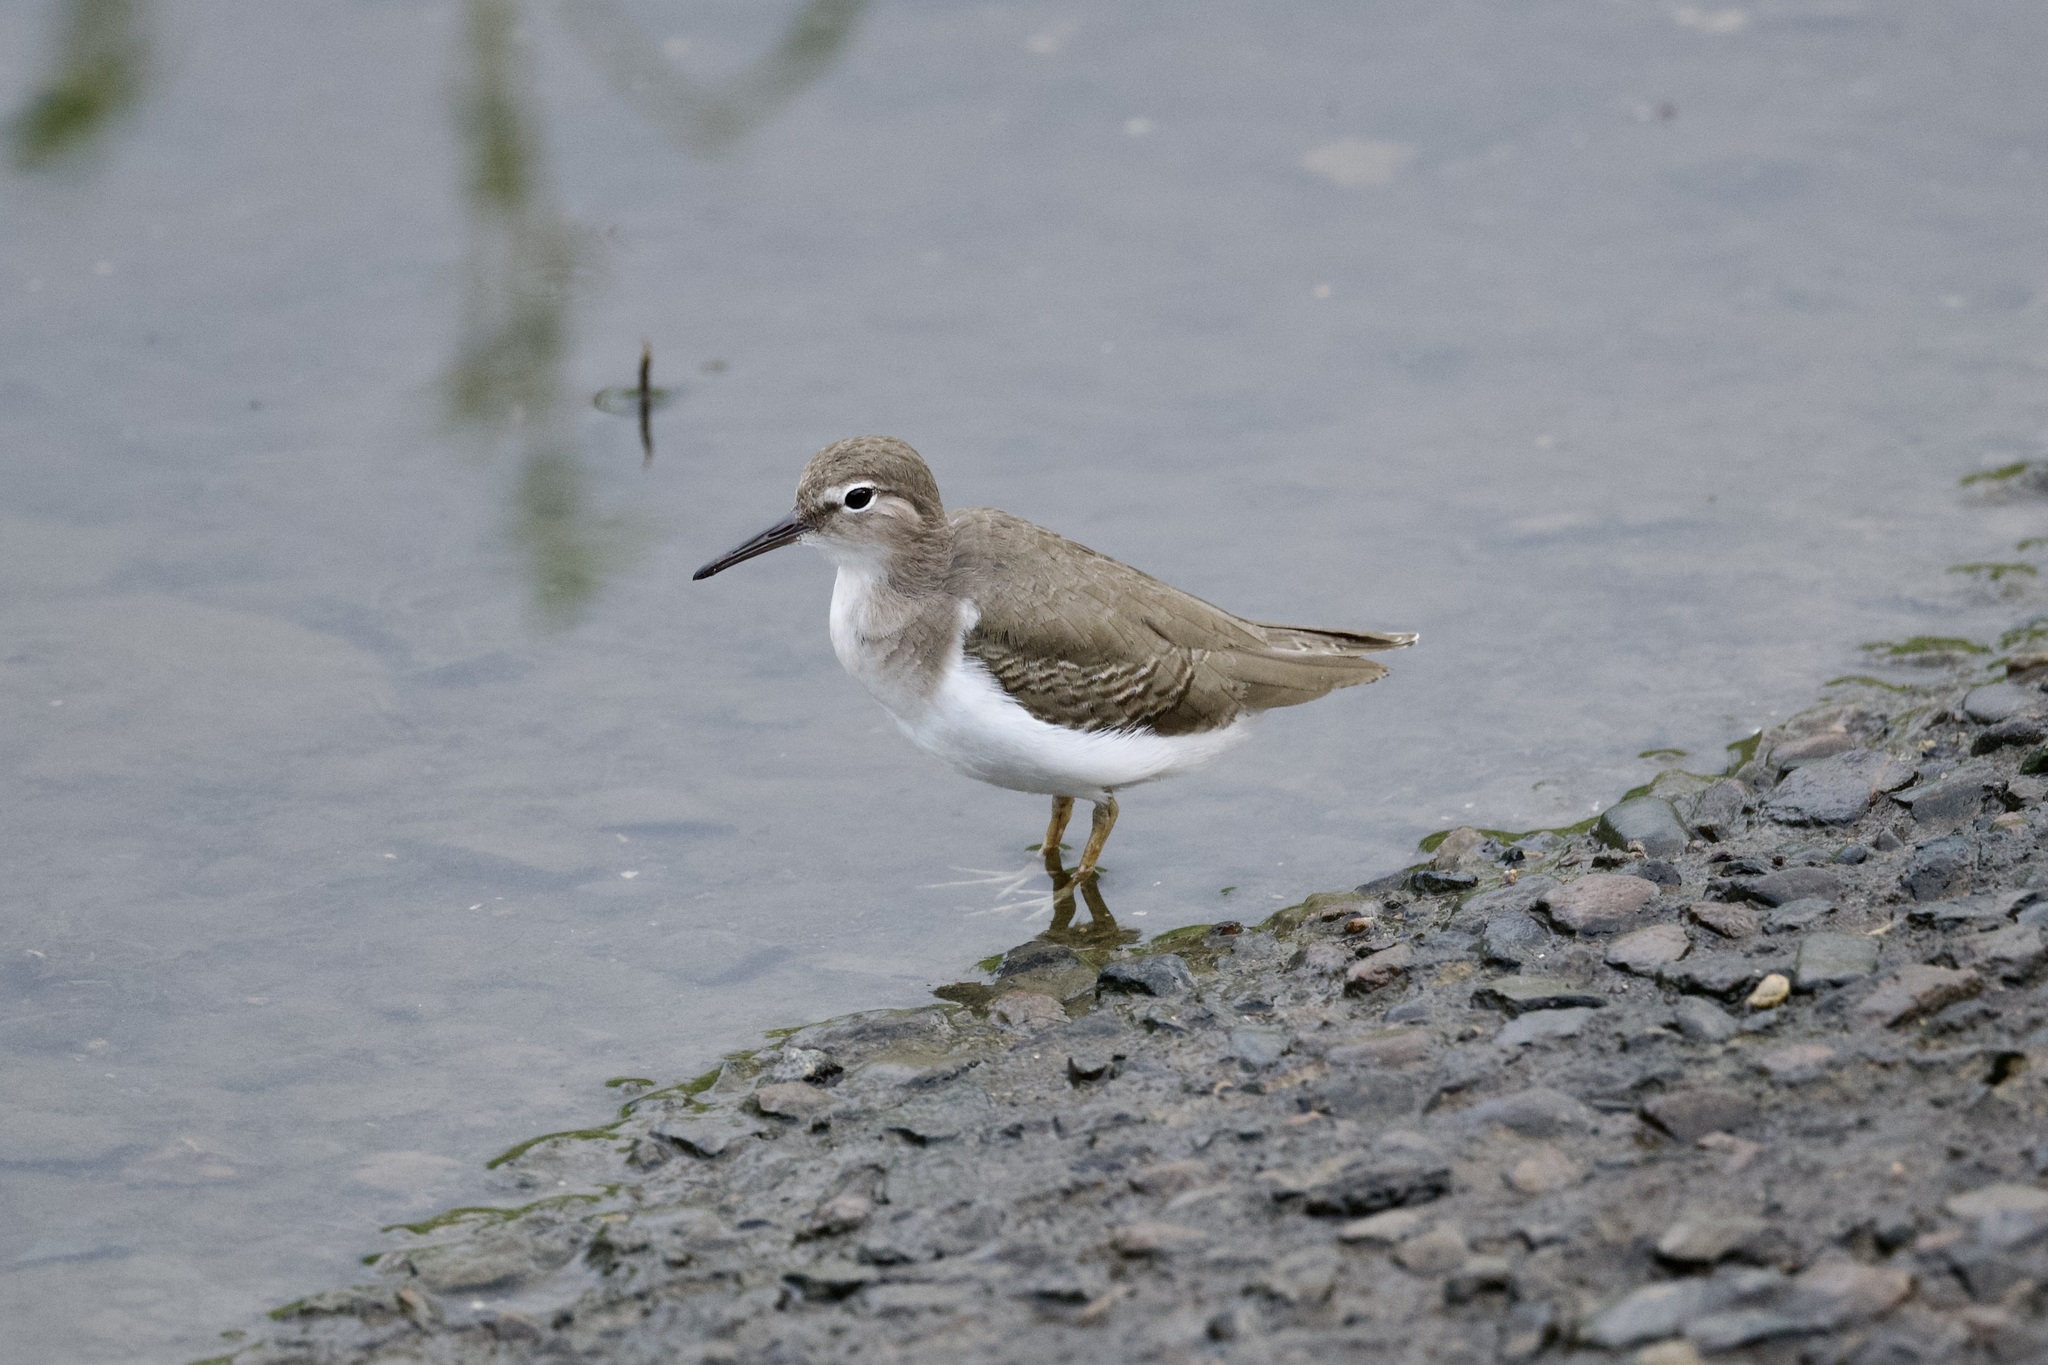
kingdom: Animalia
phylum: Chordata
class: Aves
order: Charadriiformes
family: Scolopacidae
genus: Actitis
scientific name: Actitis macularius
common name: Spotted sandpiper
